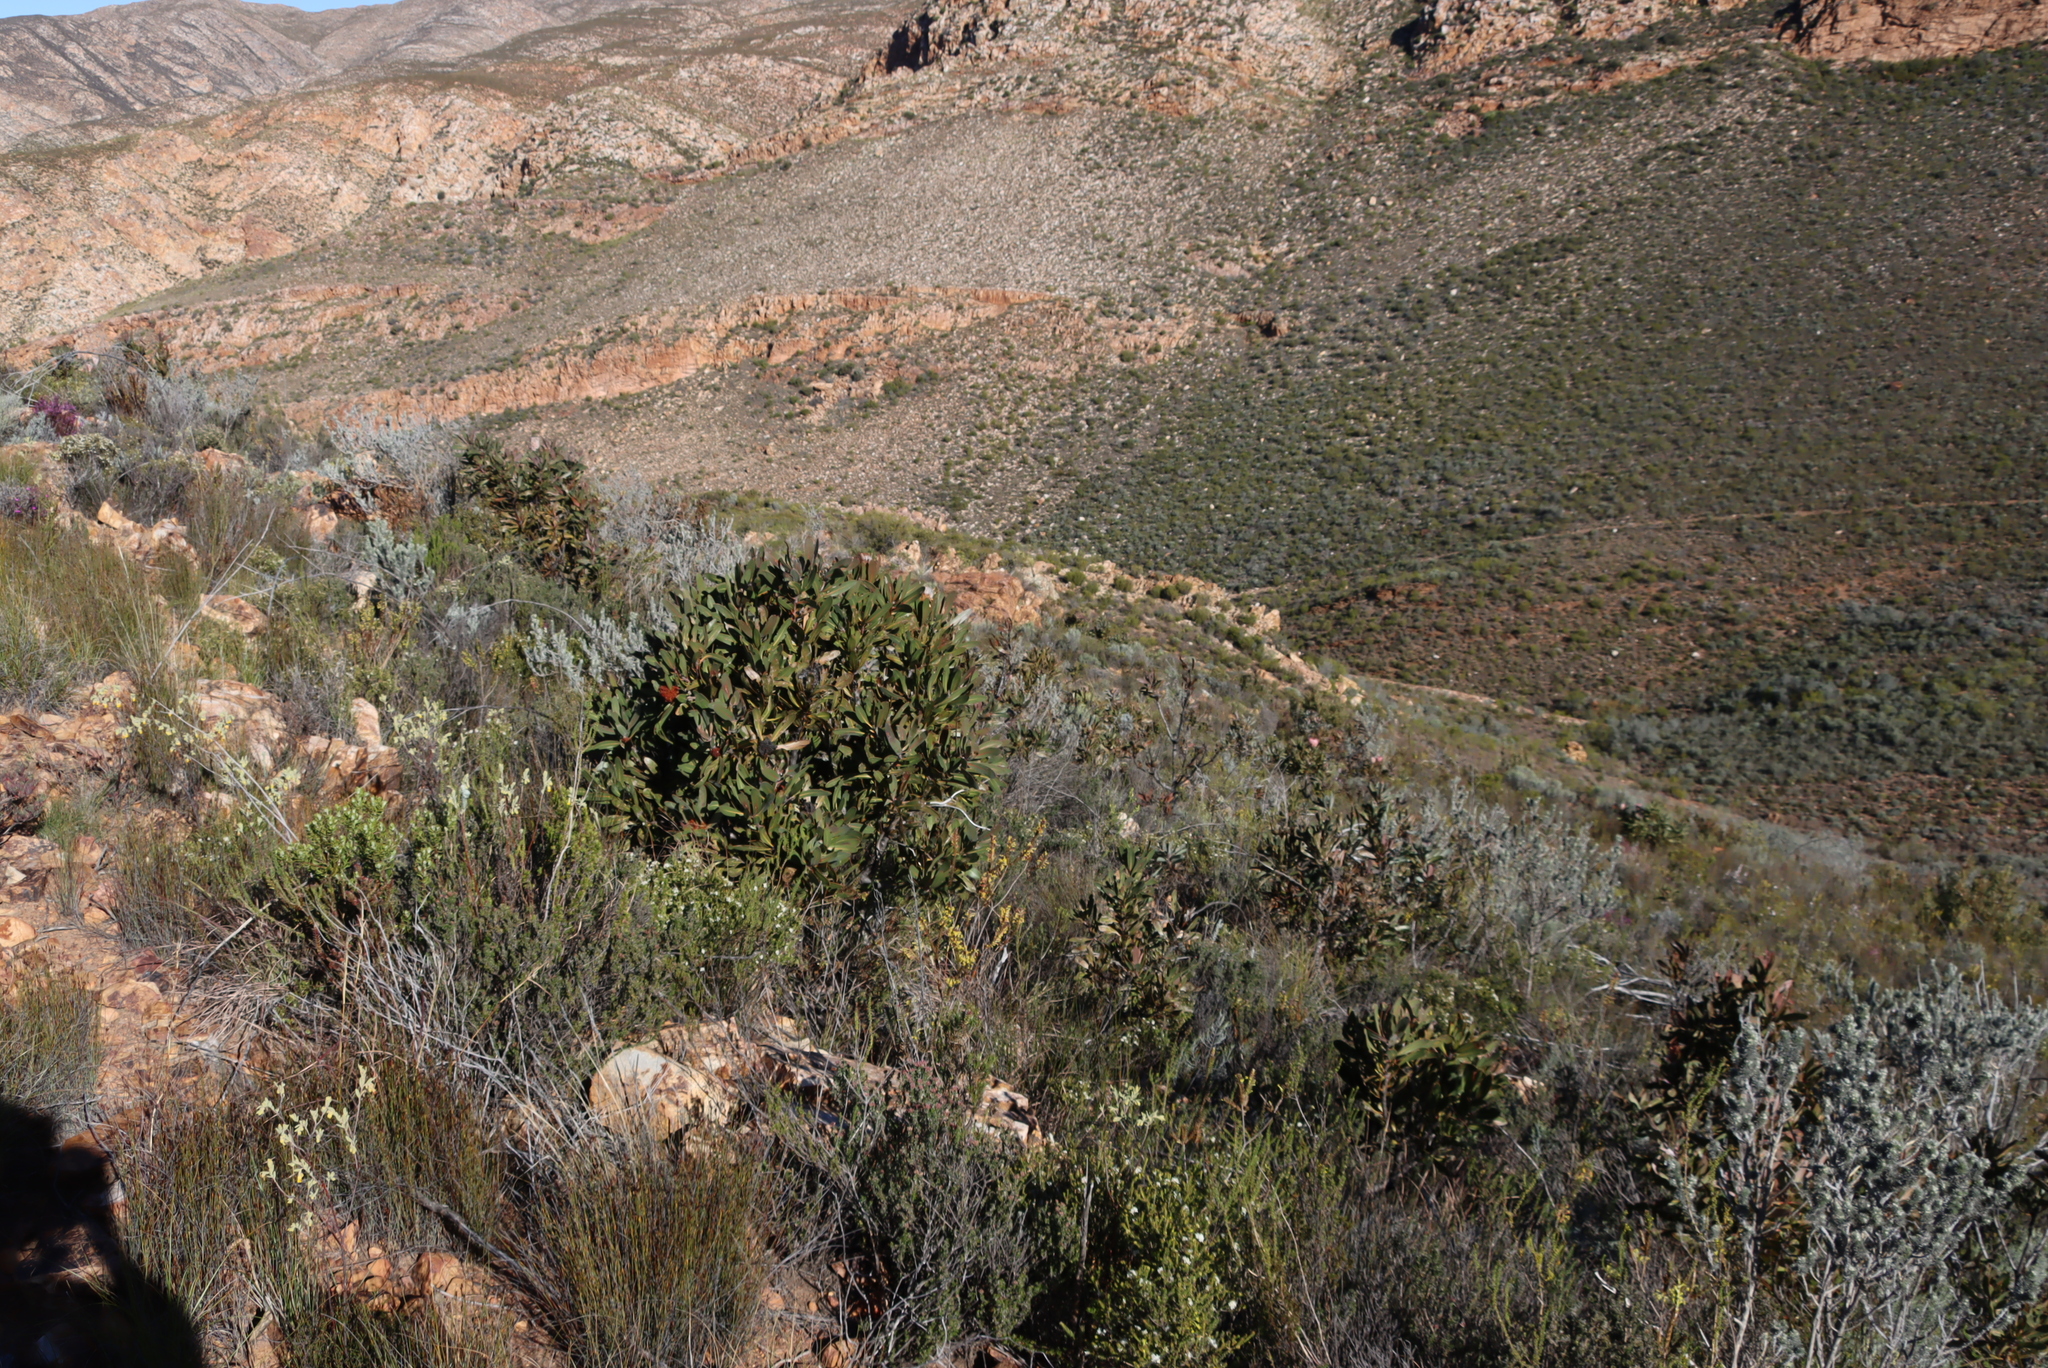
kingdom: Bacteria
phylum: Firmicutes
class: Bacilli
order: Acholeplasmatales
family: Acholeplasmataceae
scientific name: Acholeplasmataceae
